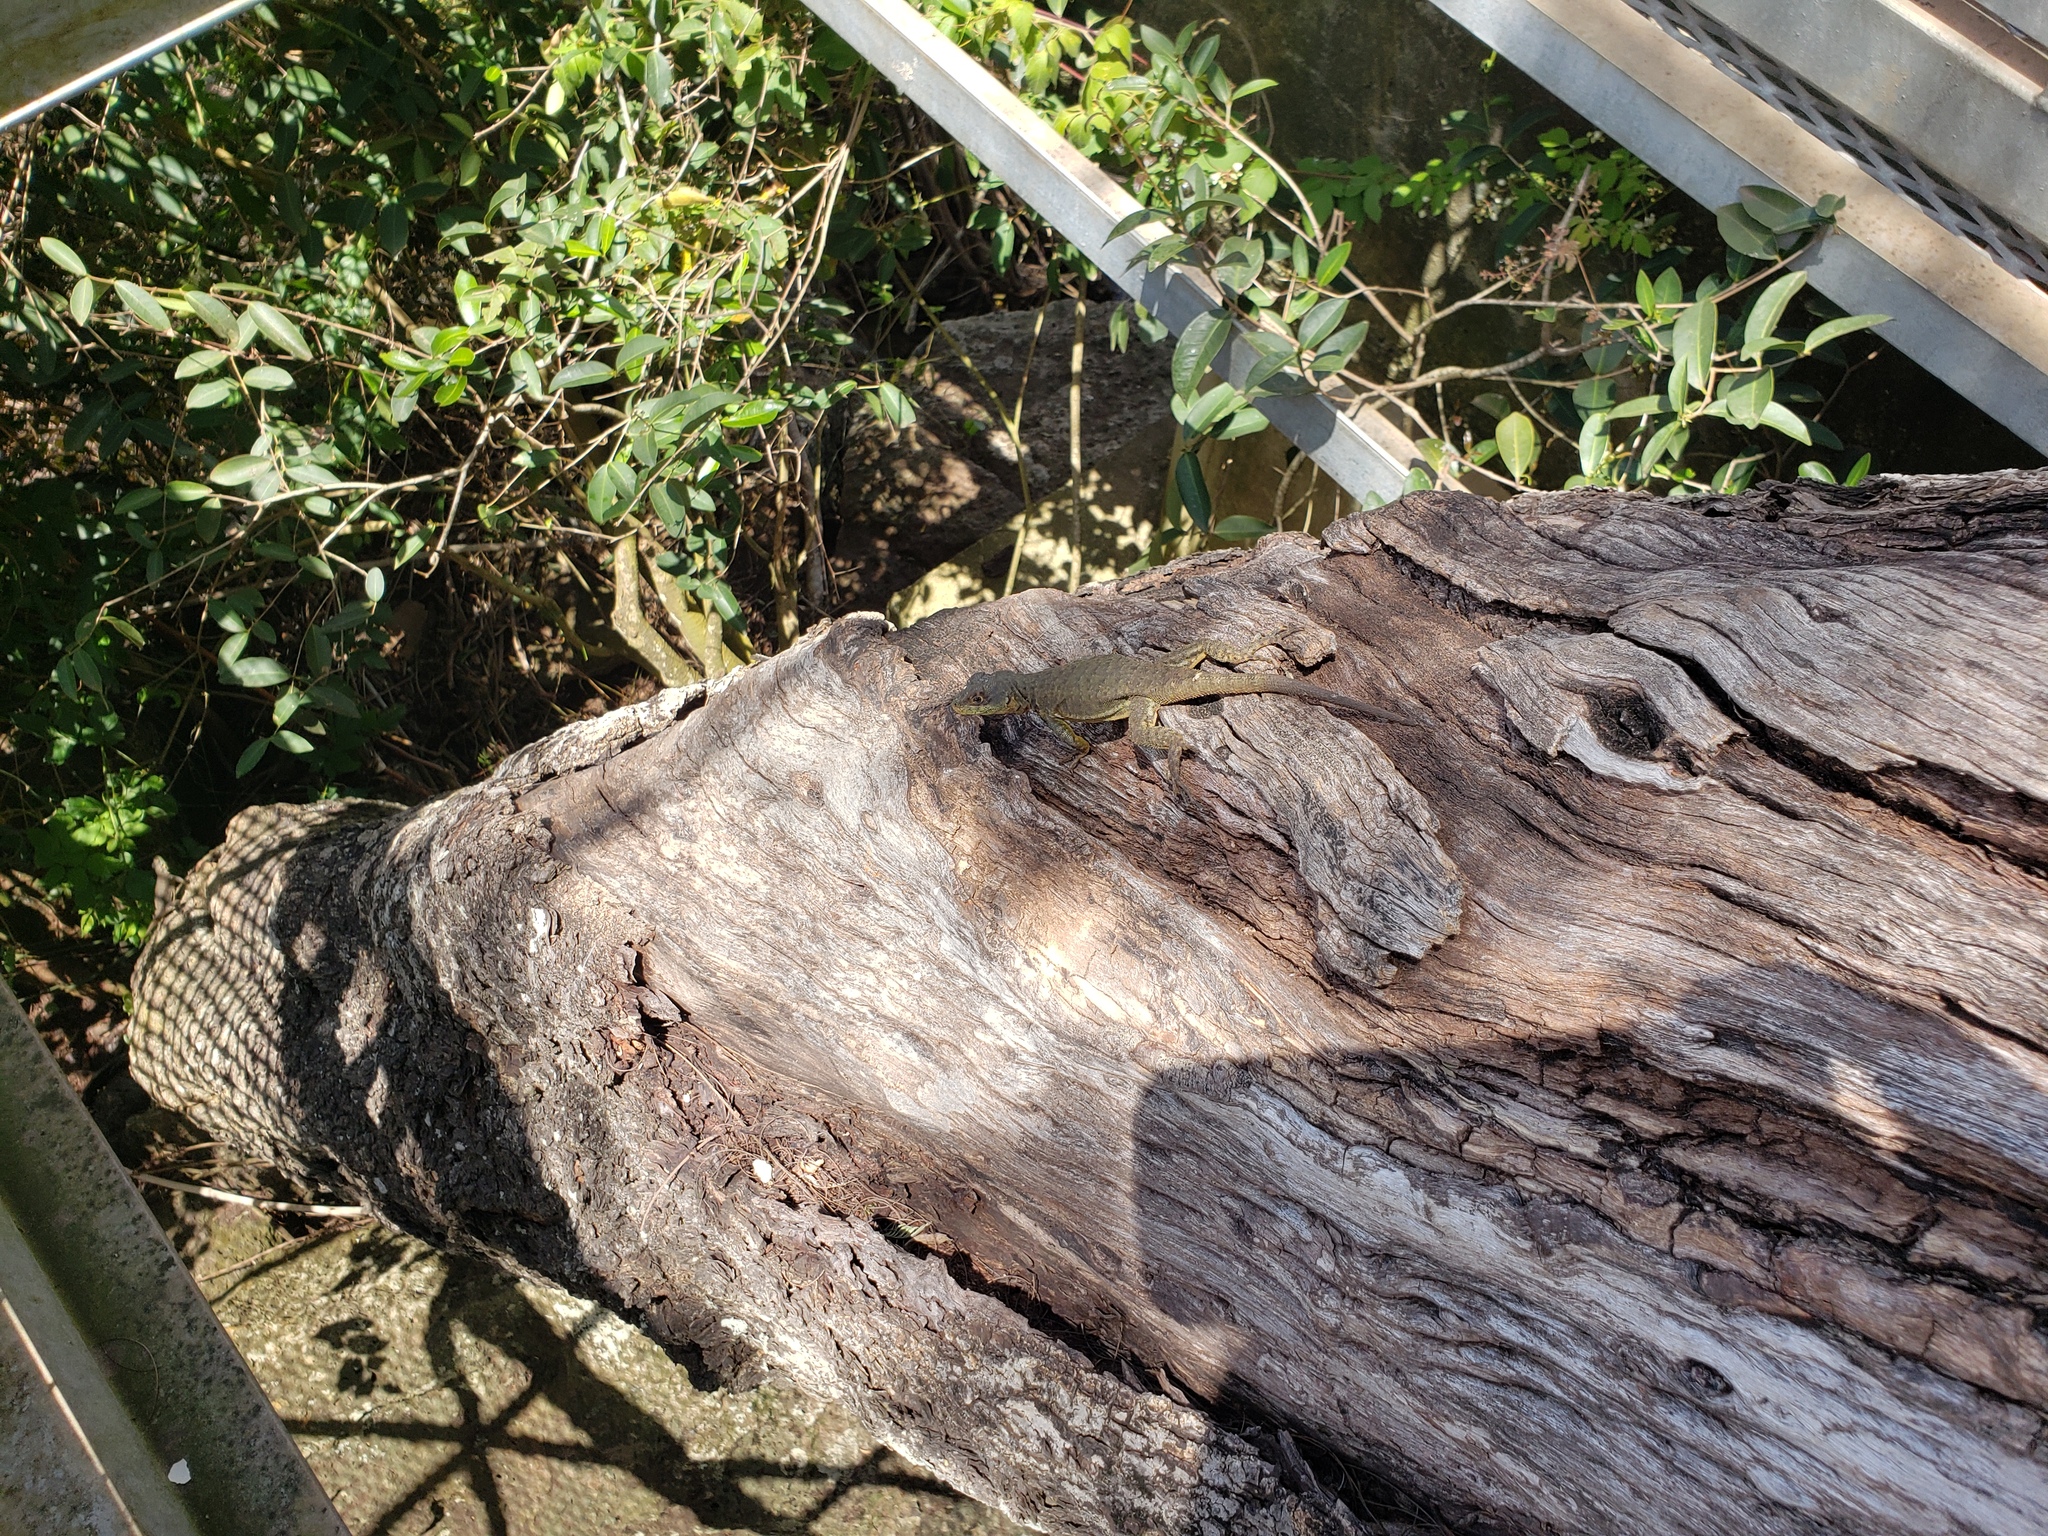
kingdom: Animalia
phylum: Chordata
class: Squamata
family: Tropiduridae
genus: Tropidurus
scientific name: Tropidurus catalanensis
